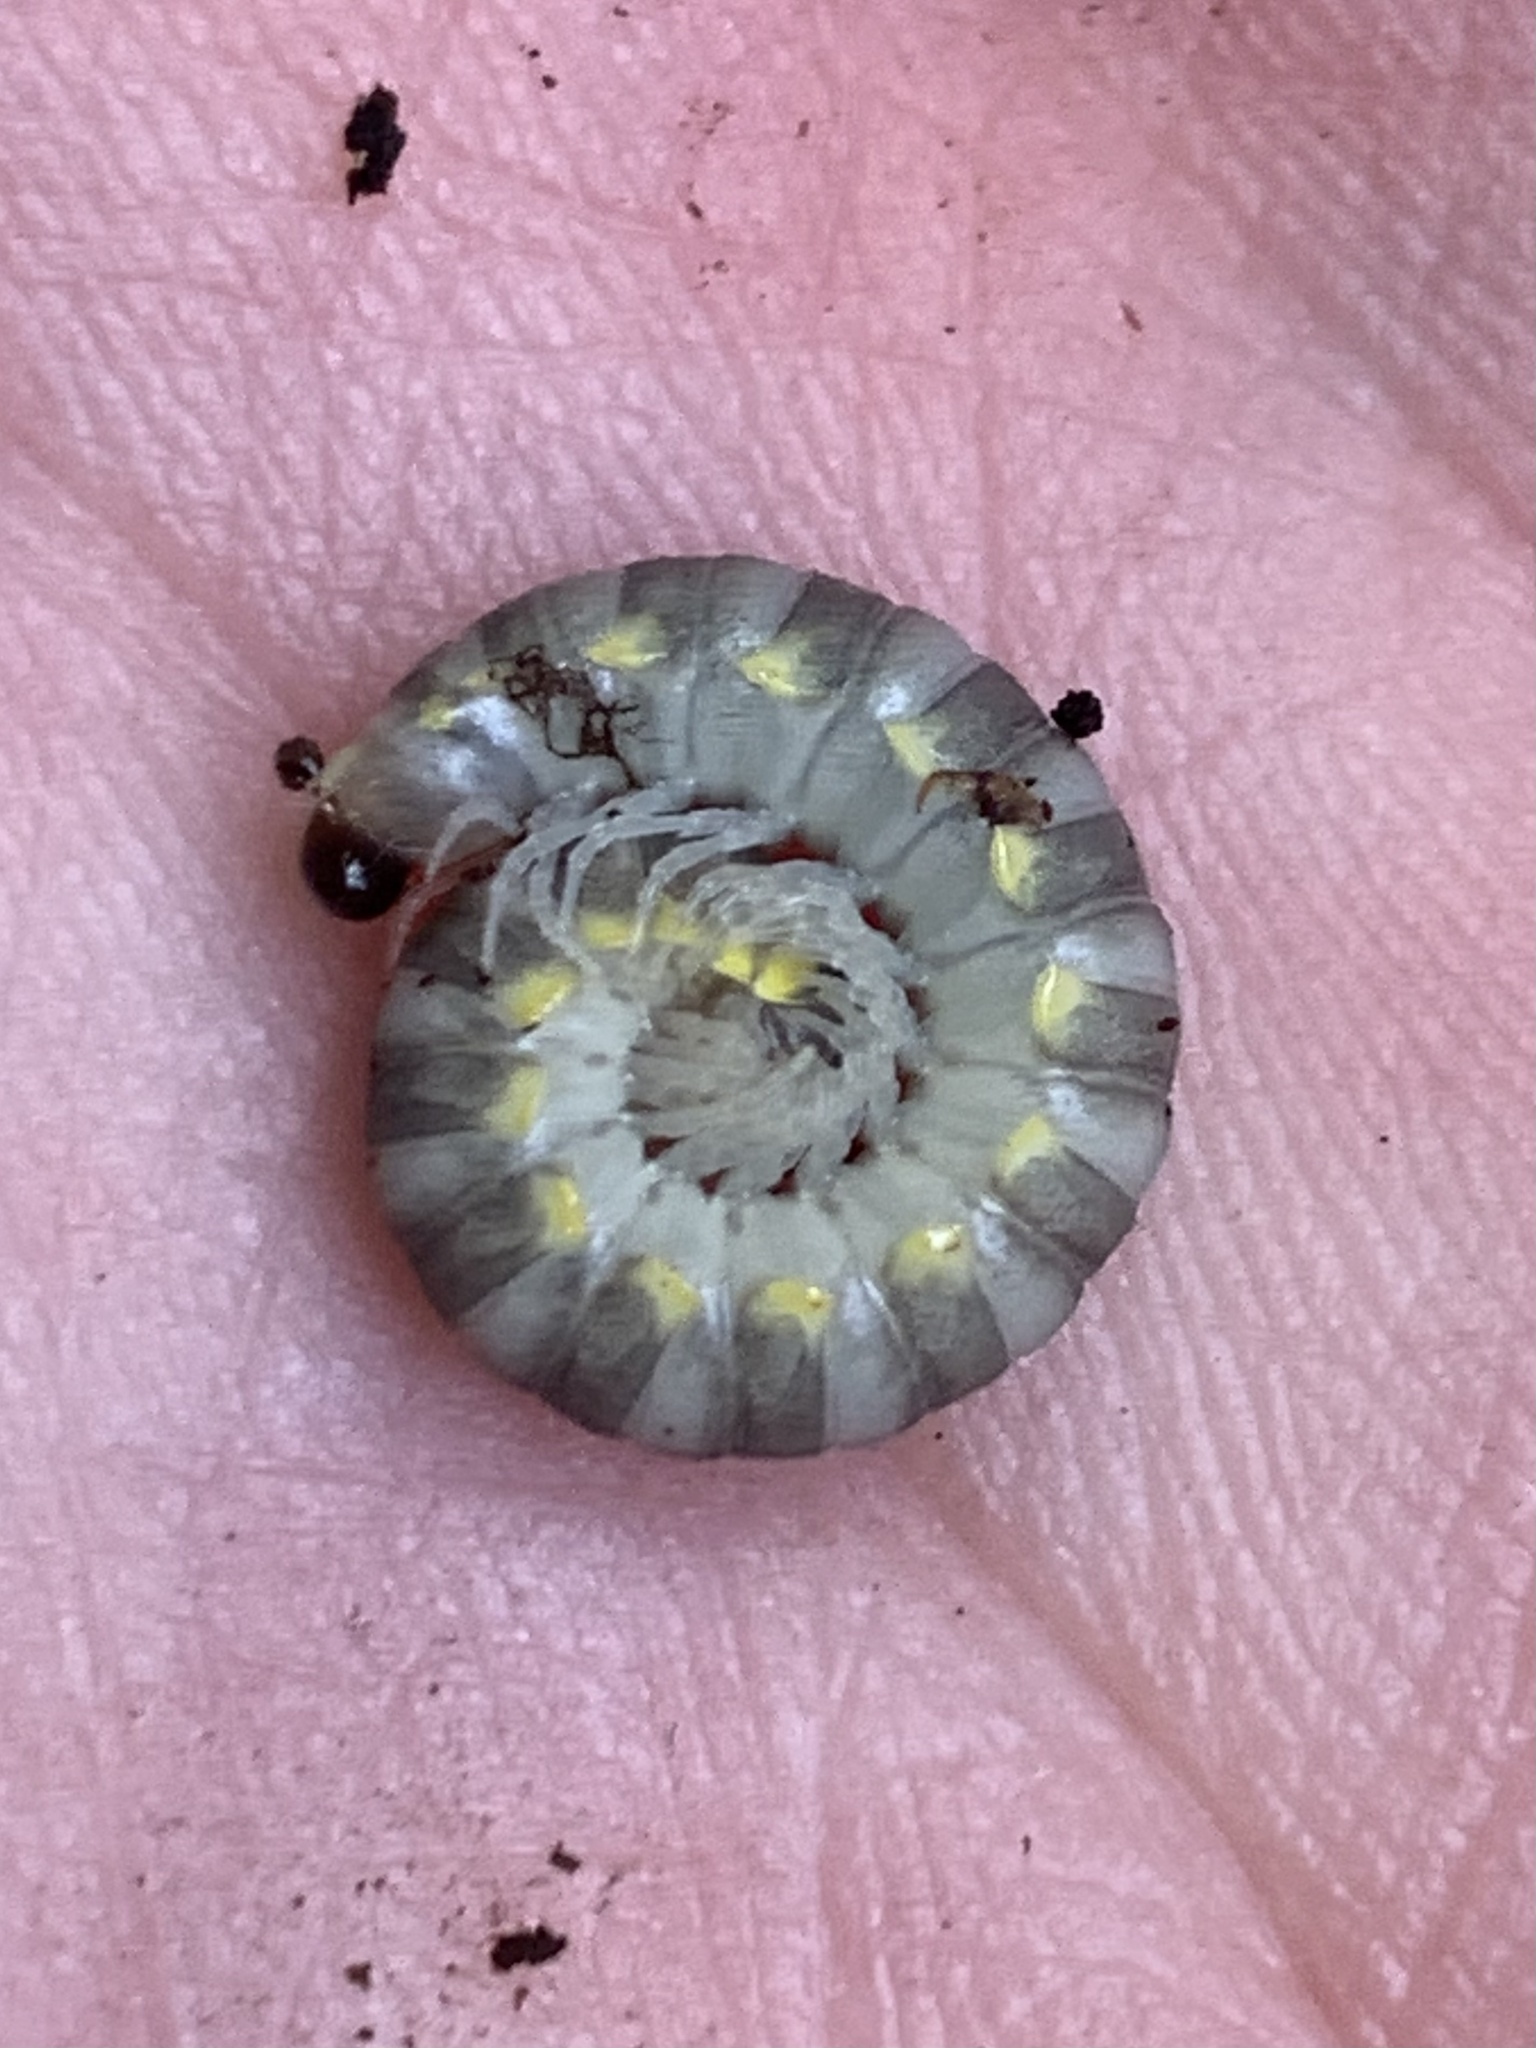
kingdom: Animalia
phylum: Arthropoda
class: Diplopoda
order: Polydesmida
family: Xystodesmidae
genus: Harpaphe
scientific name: Harpaphe haydeniana
